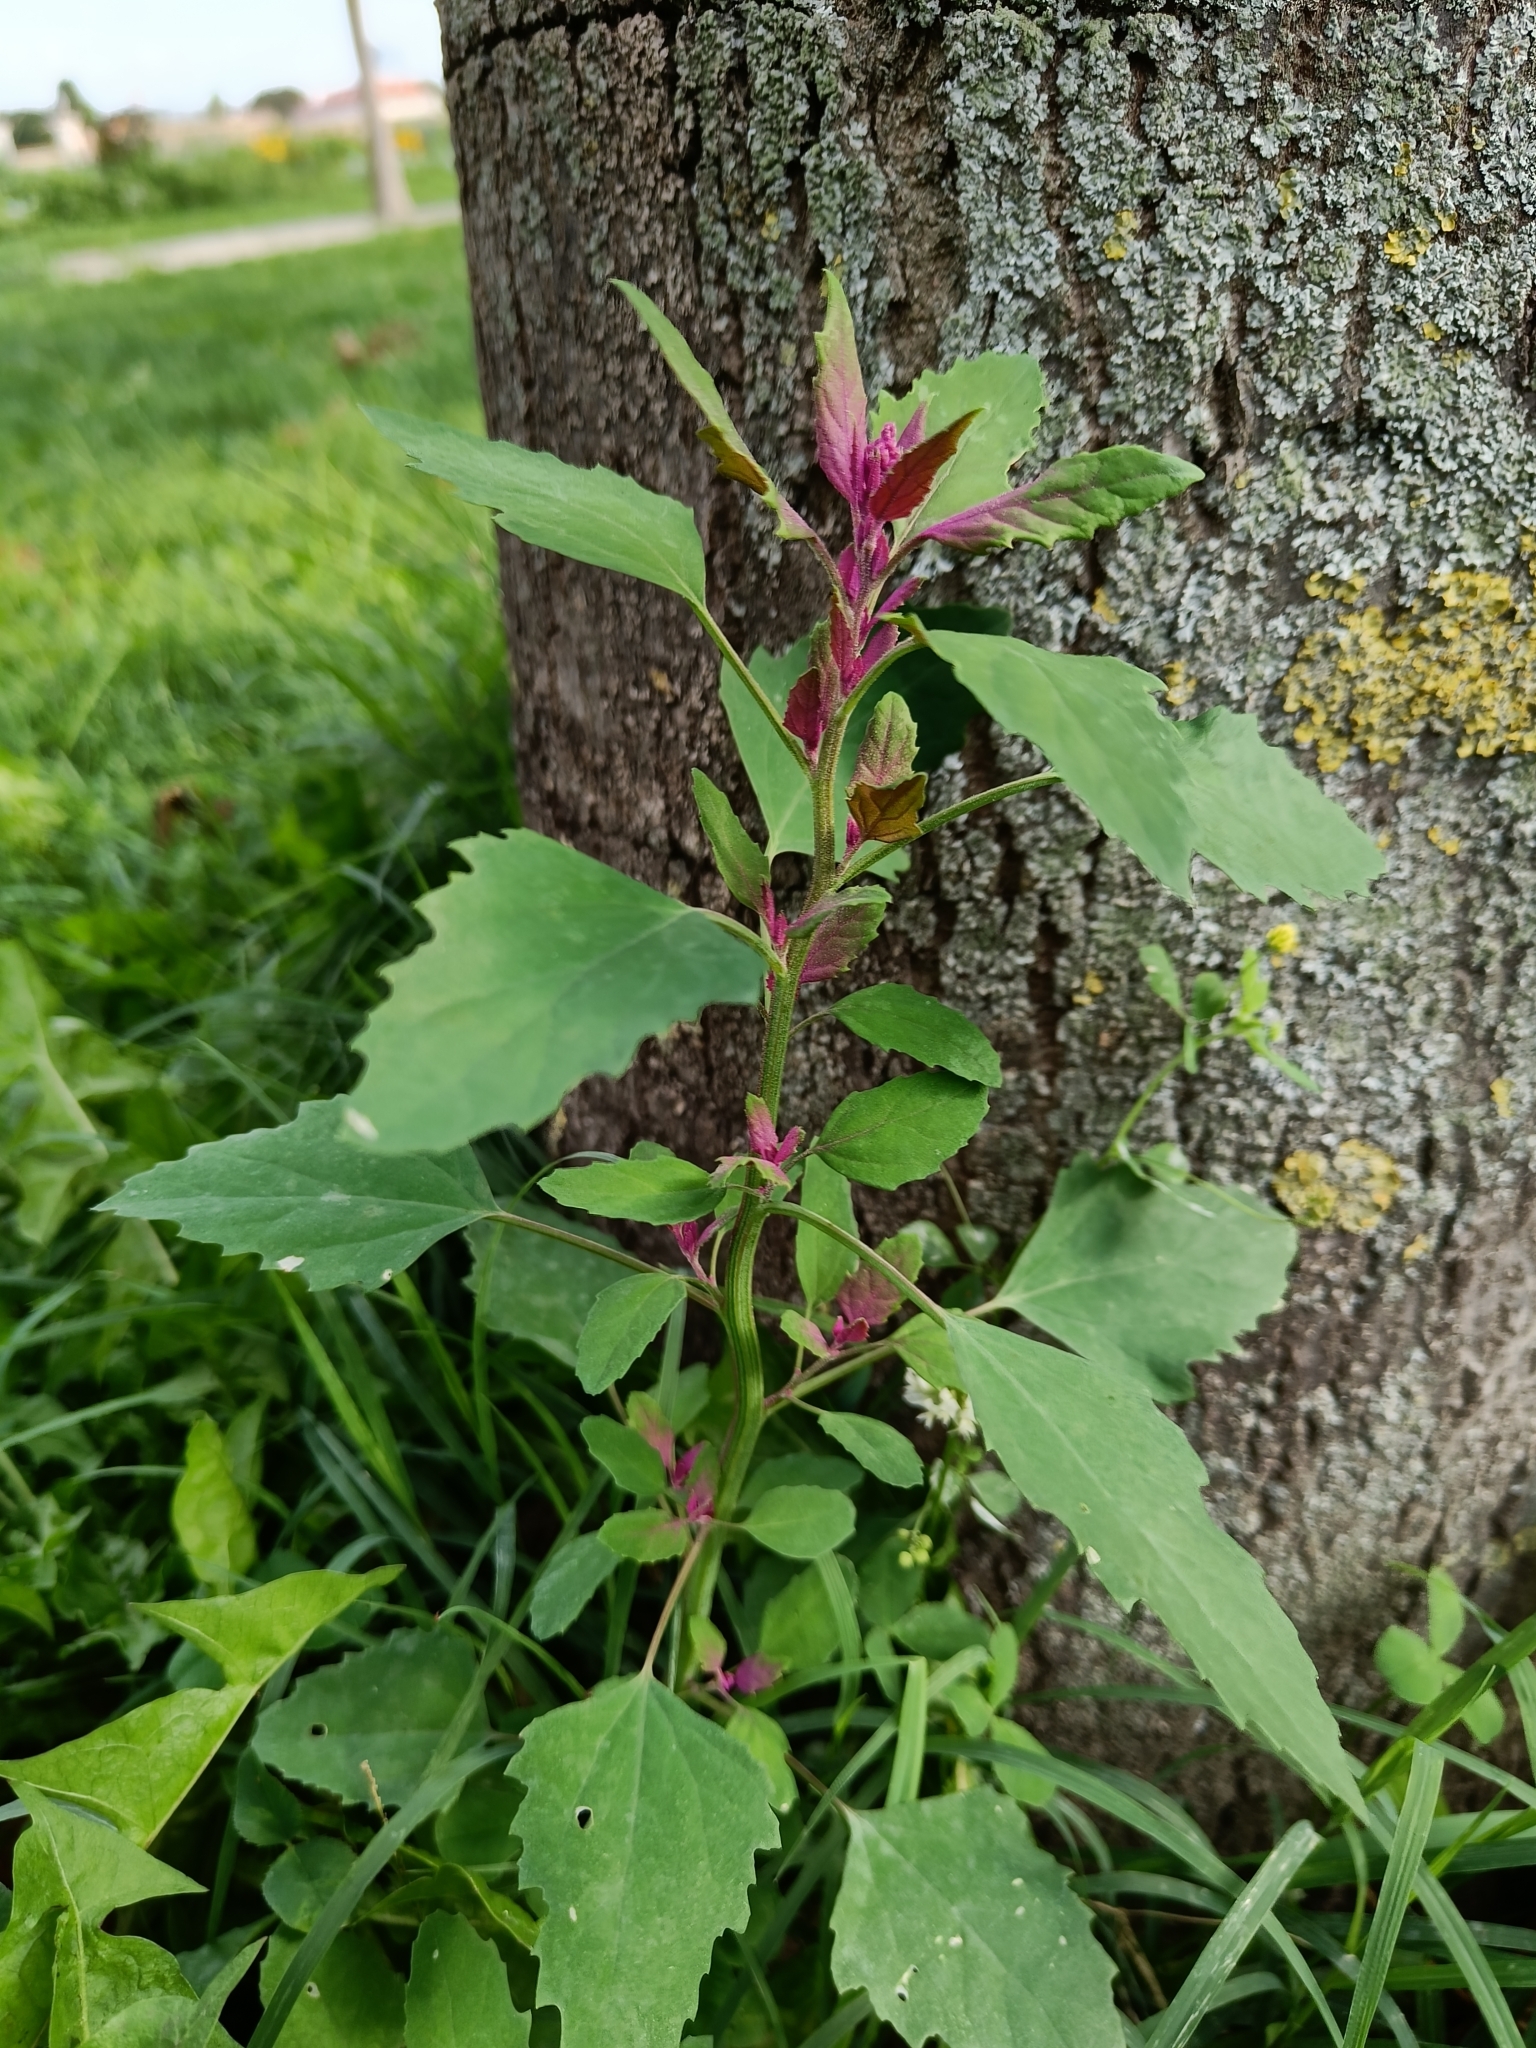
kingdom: Plantae
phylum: Tracheophyta
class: Magnoliopsida
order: Caryophyllales
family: Amaranthaceae
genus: Chenopodium
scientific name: Chenopodium giganteum
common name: Magentaspreen
